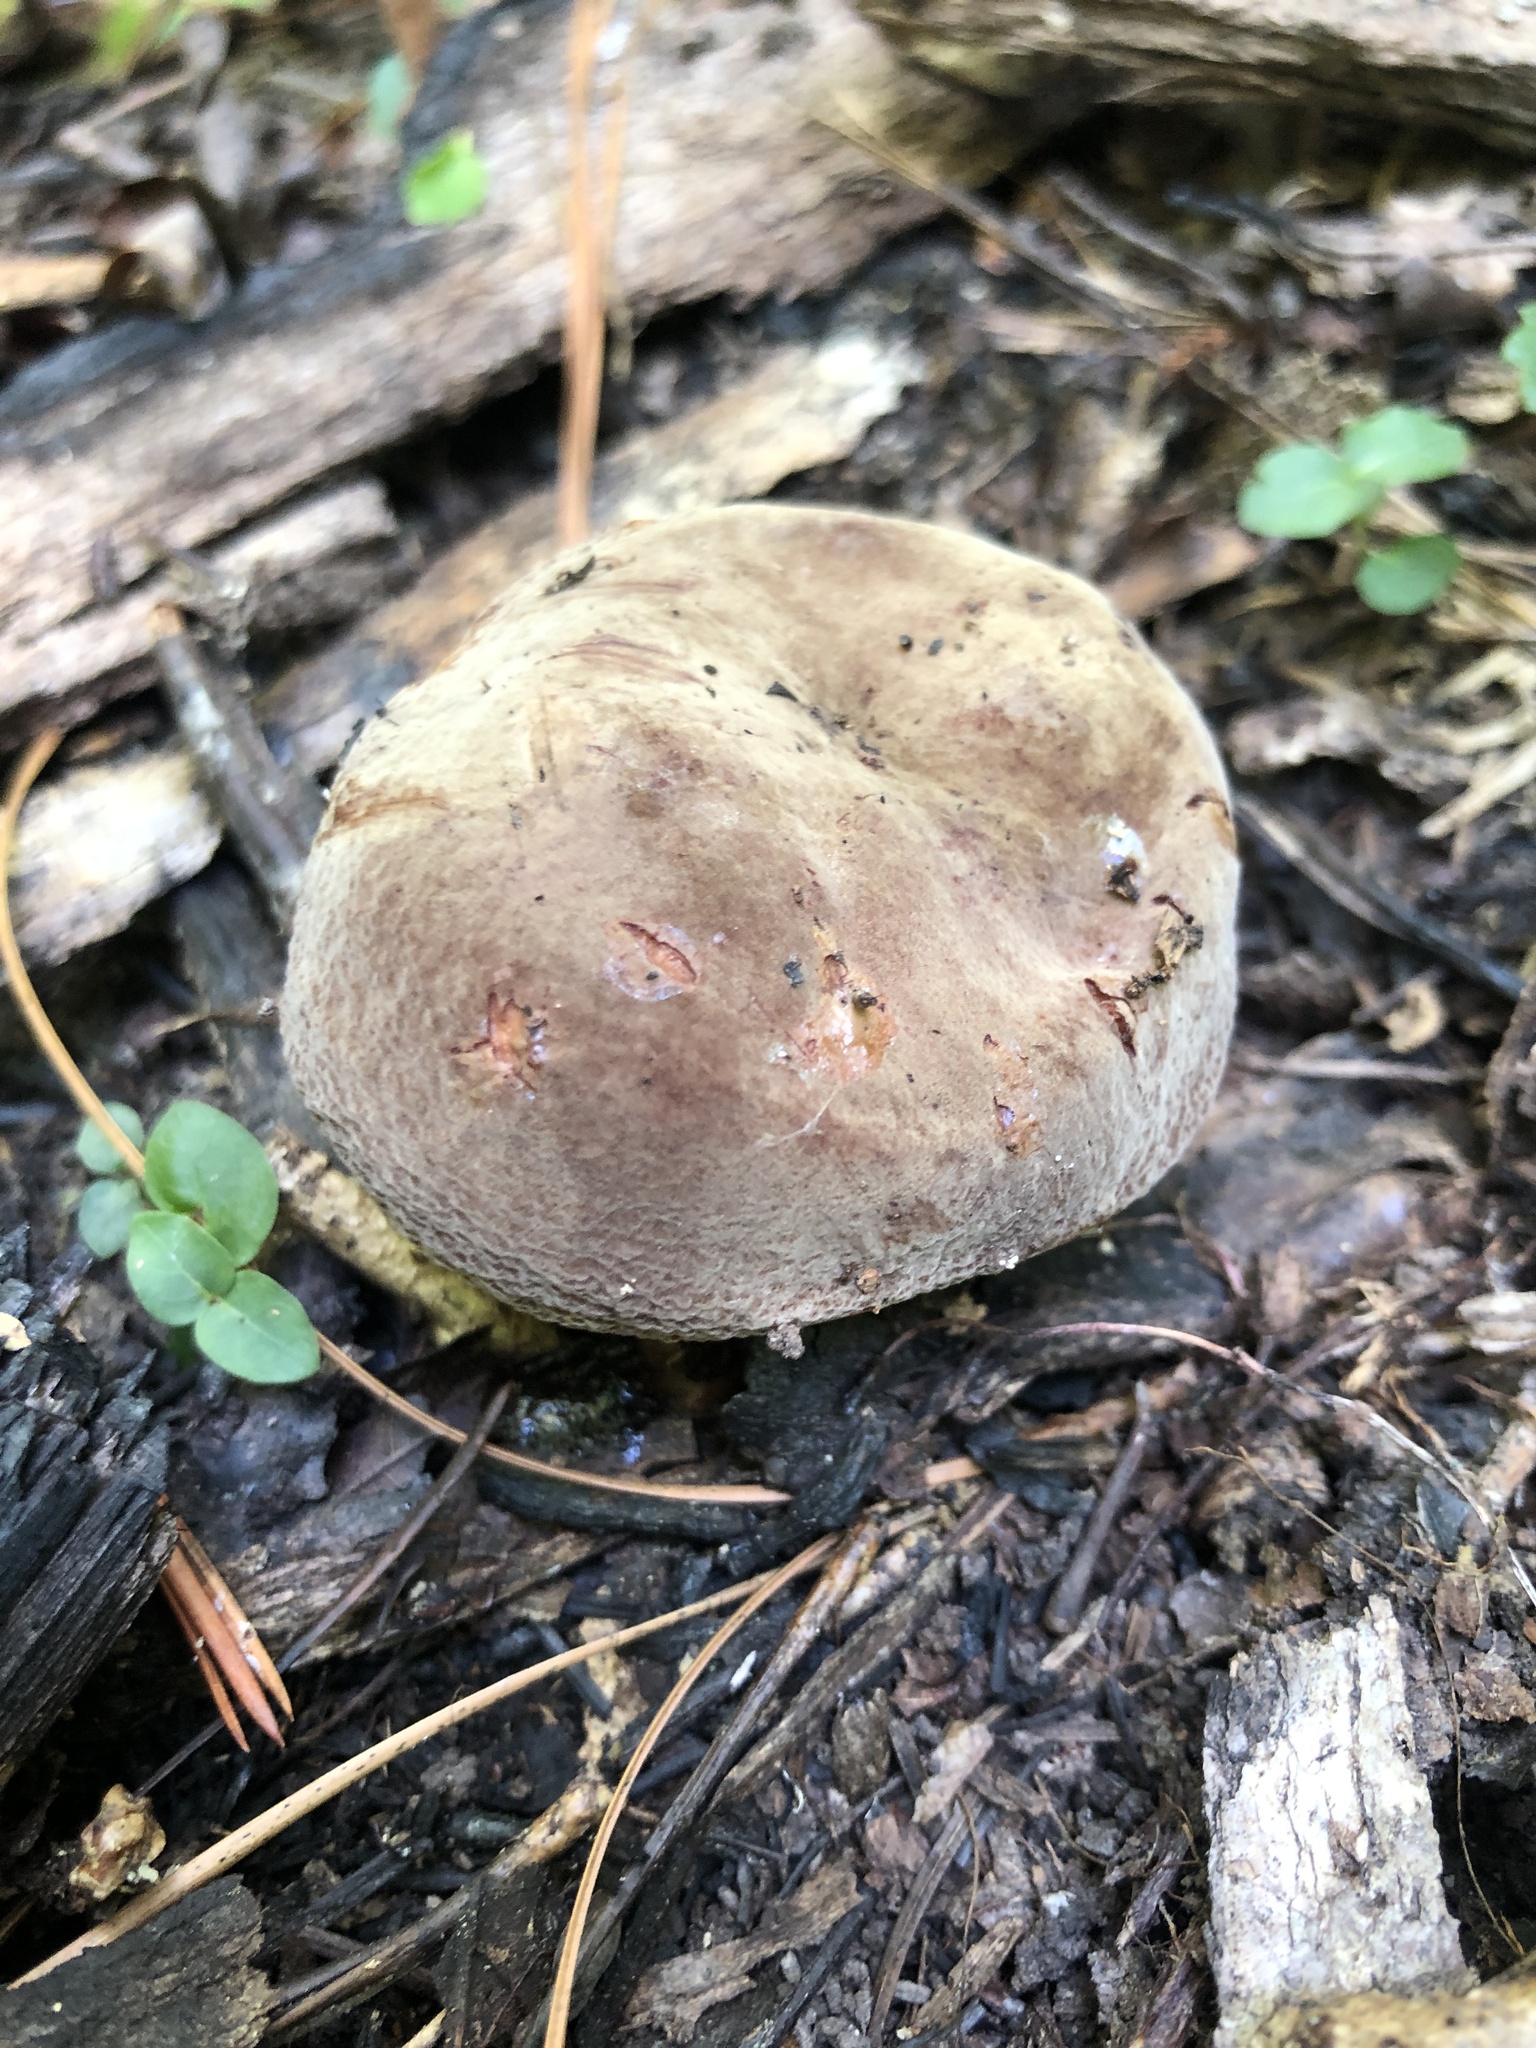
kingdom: Fungi
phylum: Basidiomycota
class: Agaricomycetes
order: Russulales
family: Russulaceae
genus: Lactarius
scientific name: Lactarius corrugis
